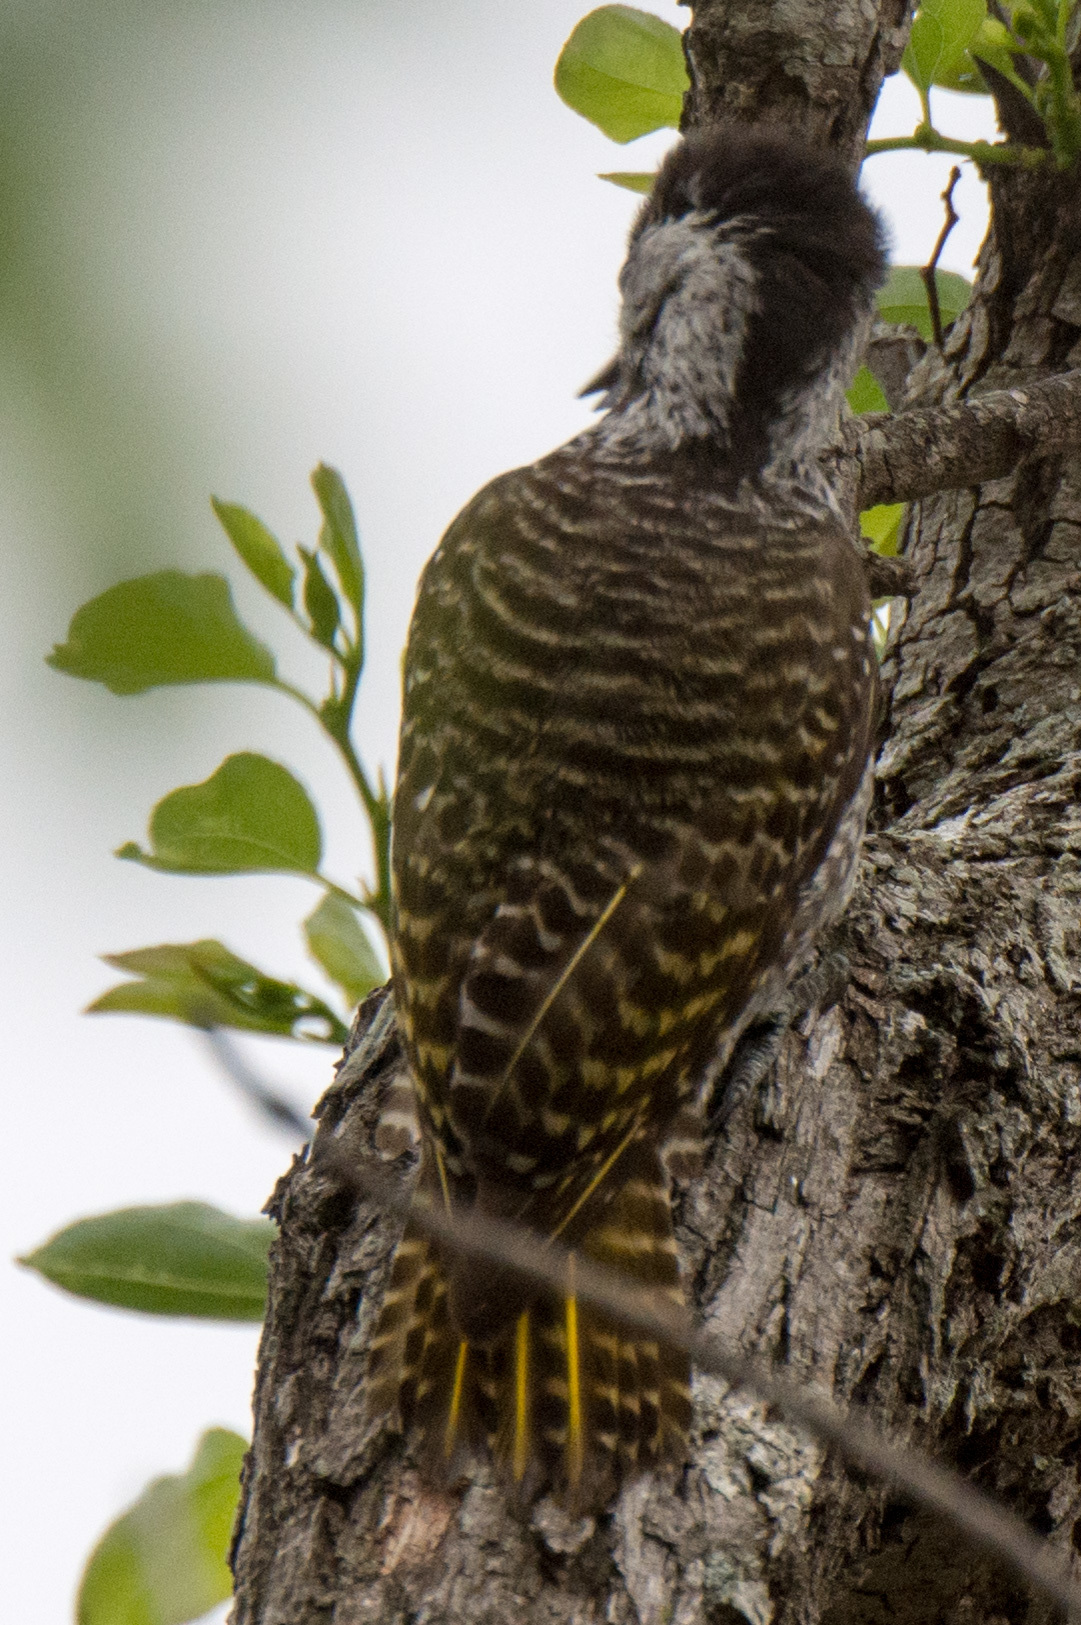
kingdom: Animalia
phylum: Chordata
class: Aves
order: Piciformes
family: Picidae
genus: Dendropicos
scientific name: Dendropicos fuscescens
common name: Cardinal woodpecker
